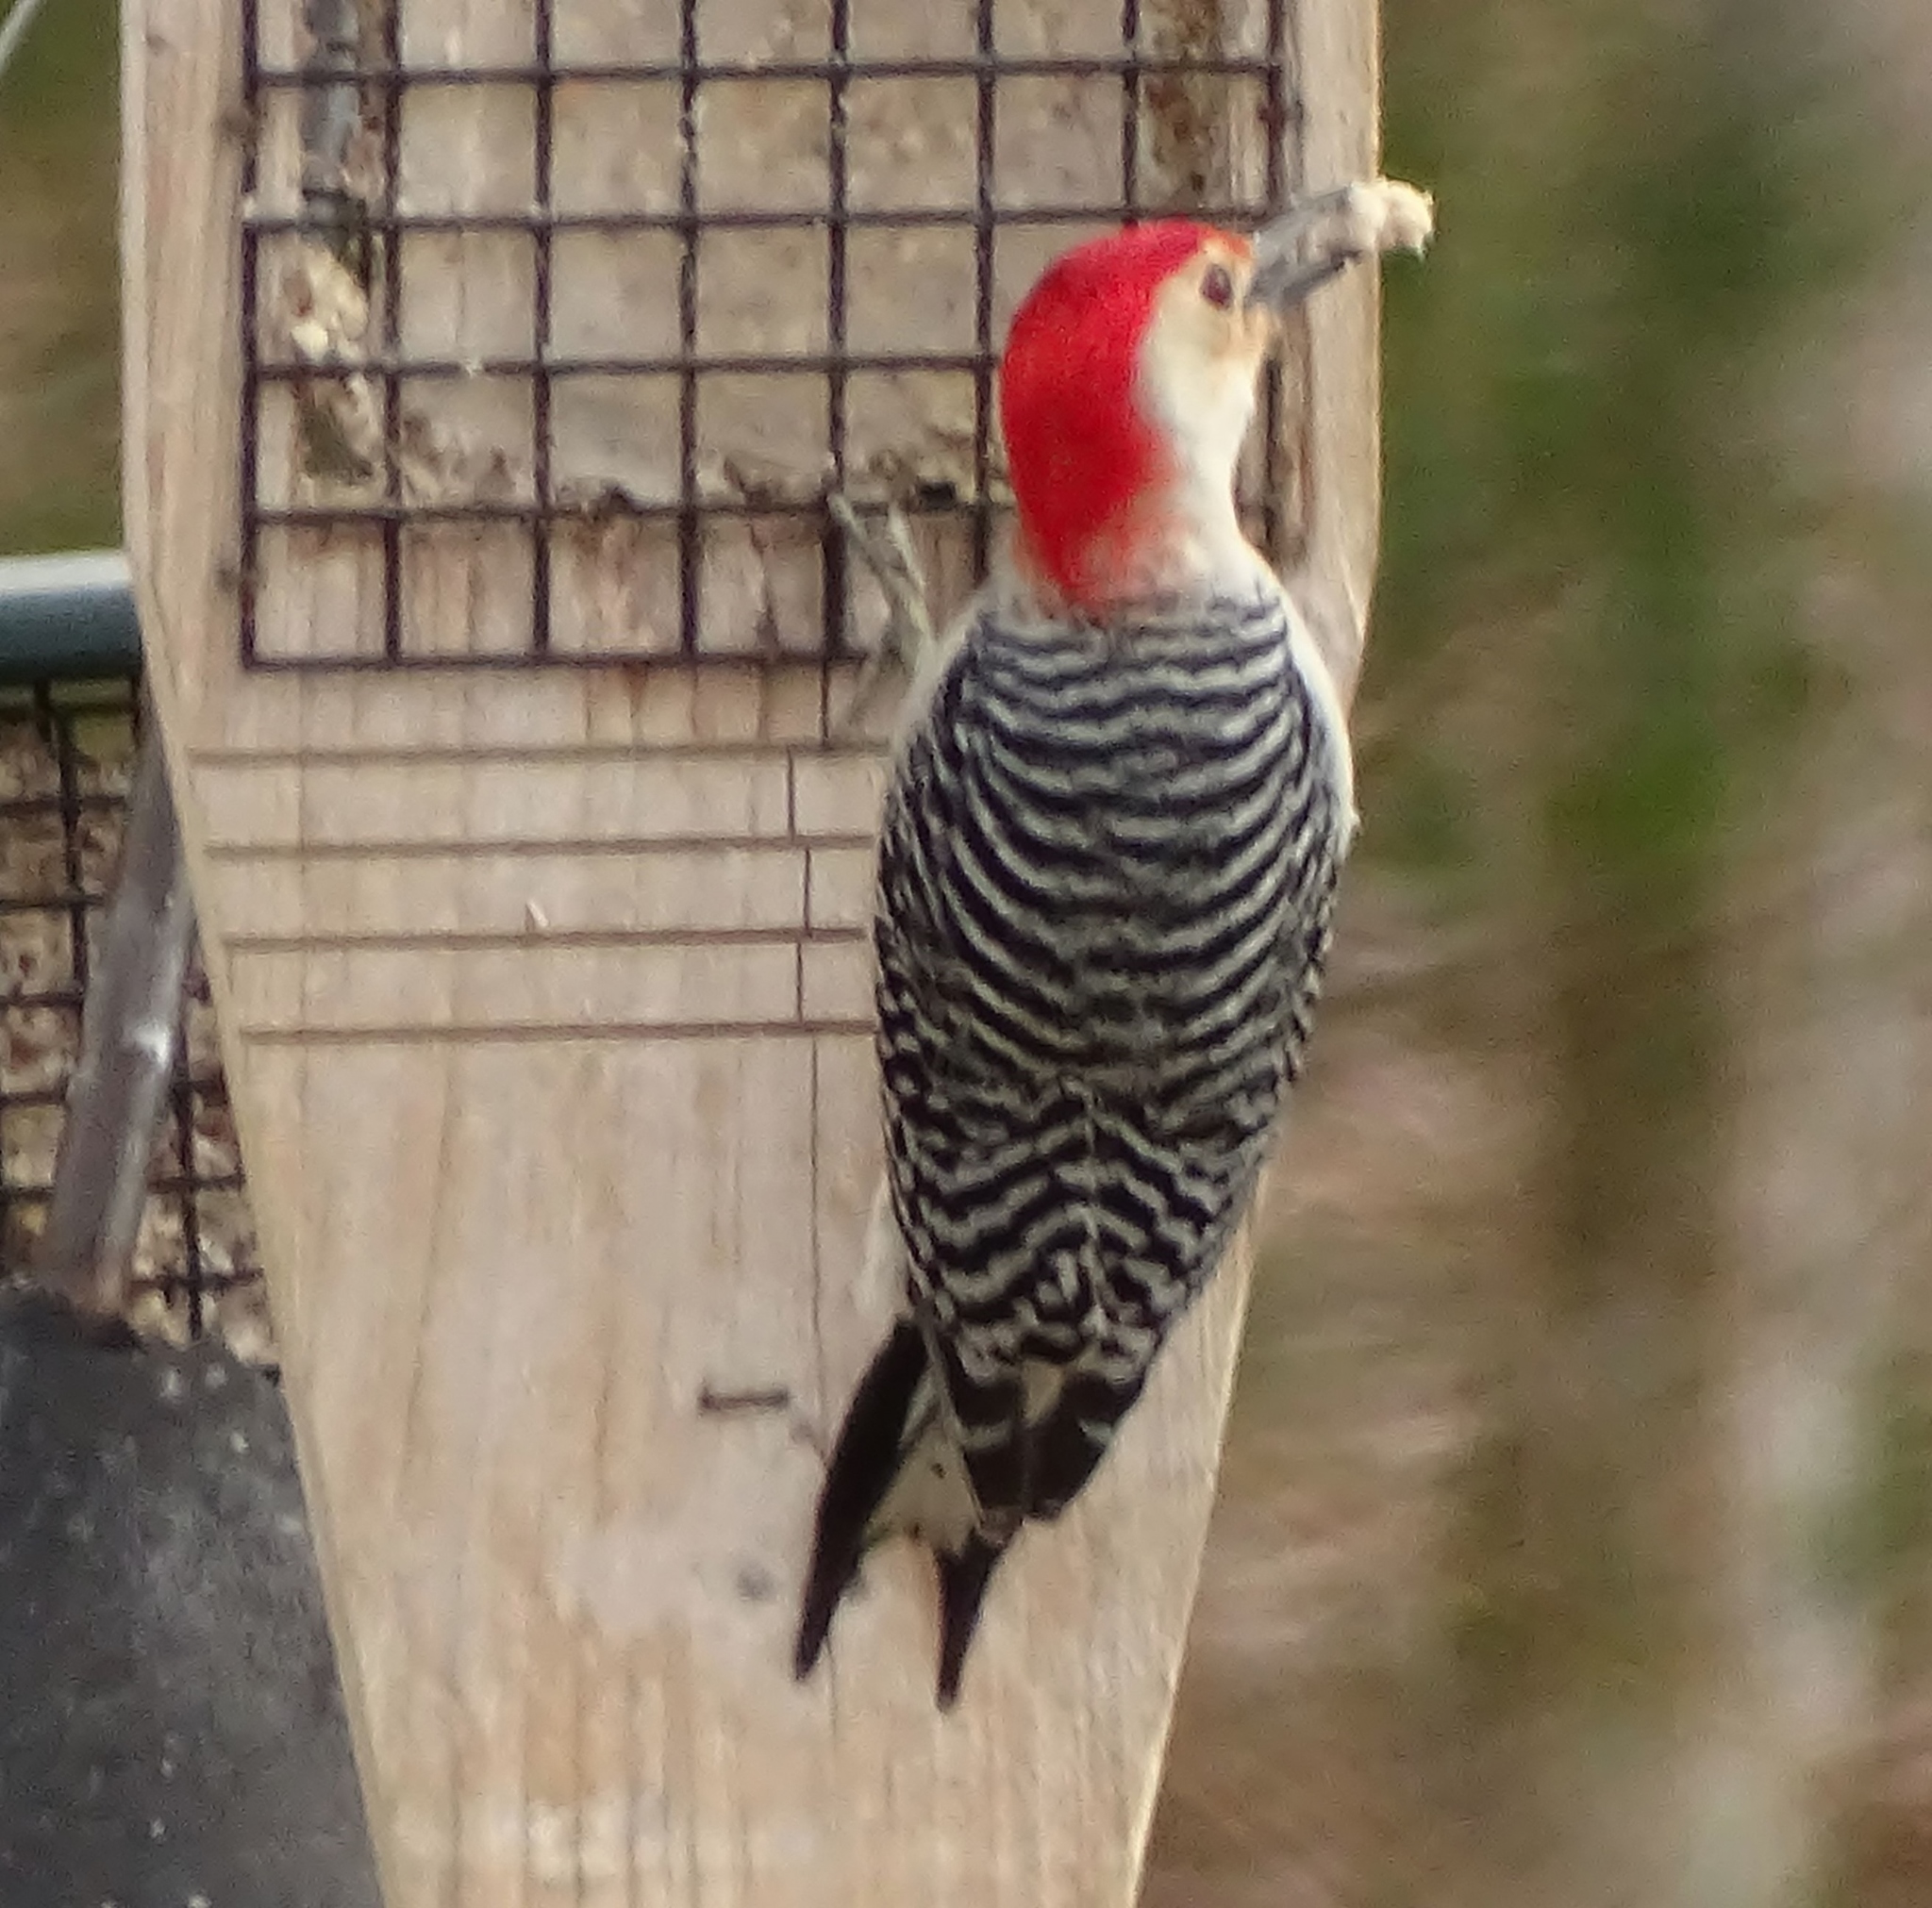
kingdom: Animalia
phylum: Chordata
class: Aves
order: Piciformes
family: Picidae
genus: Melanerpes
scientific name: Melanerpes carolinus
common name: Red-bellied woodpecker
